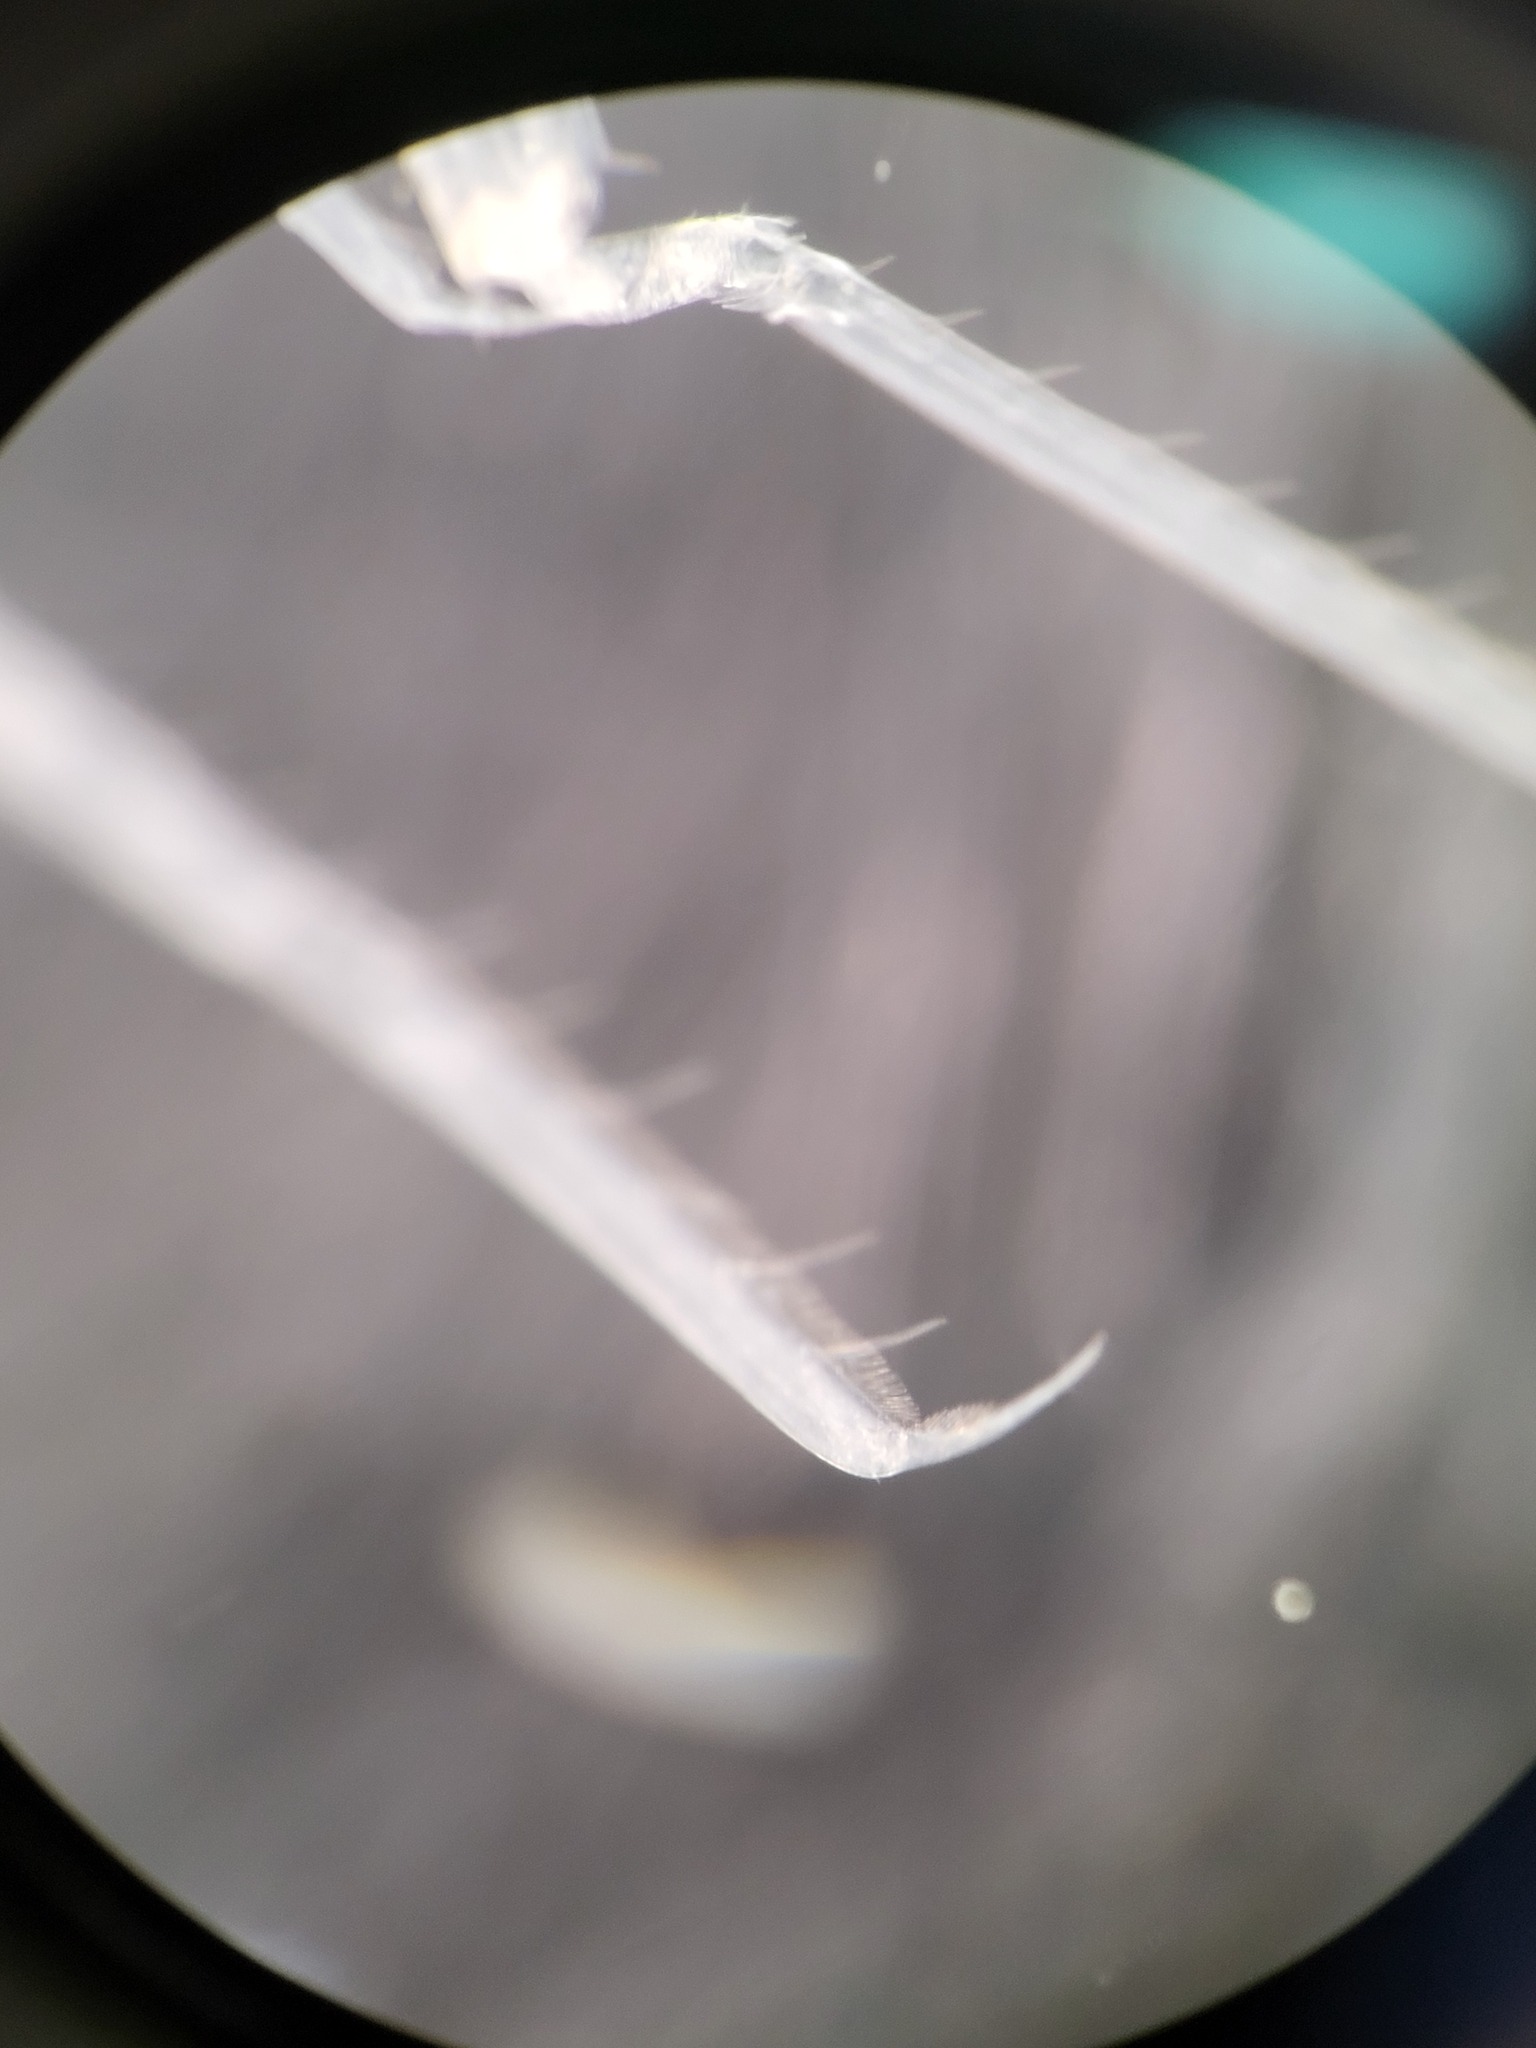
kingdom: Animalia
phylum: Arthropoda
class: Malacostraca
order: Amphipoda
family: Hyperiidae
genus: Themisto
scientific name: Themisto libellula
